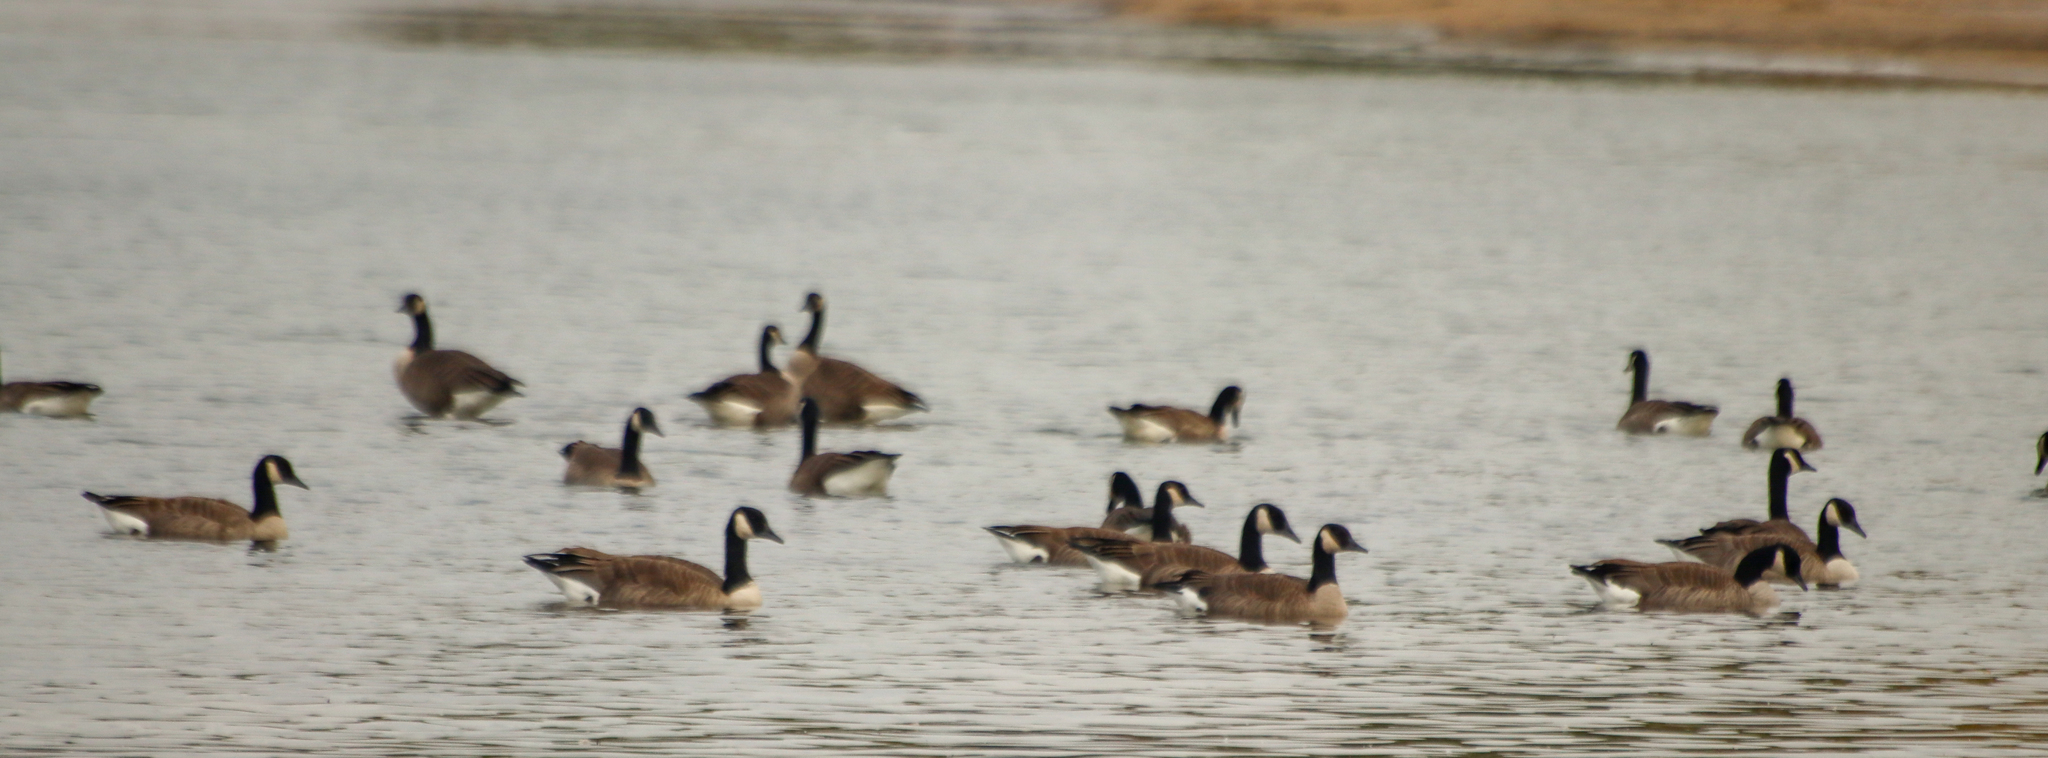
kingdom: Animalia
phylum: Chordata
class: Aves
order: Anseriformes
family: Anatidae
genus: Branta
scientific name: Branta canadensis
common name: Canada goose
